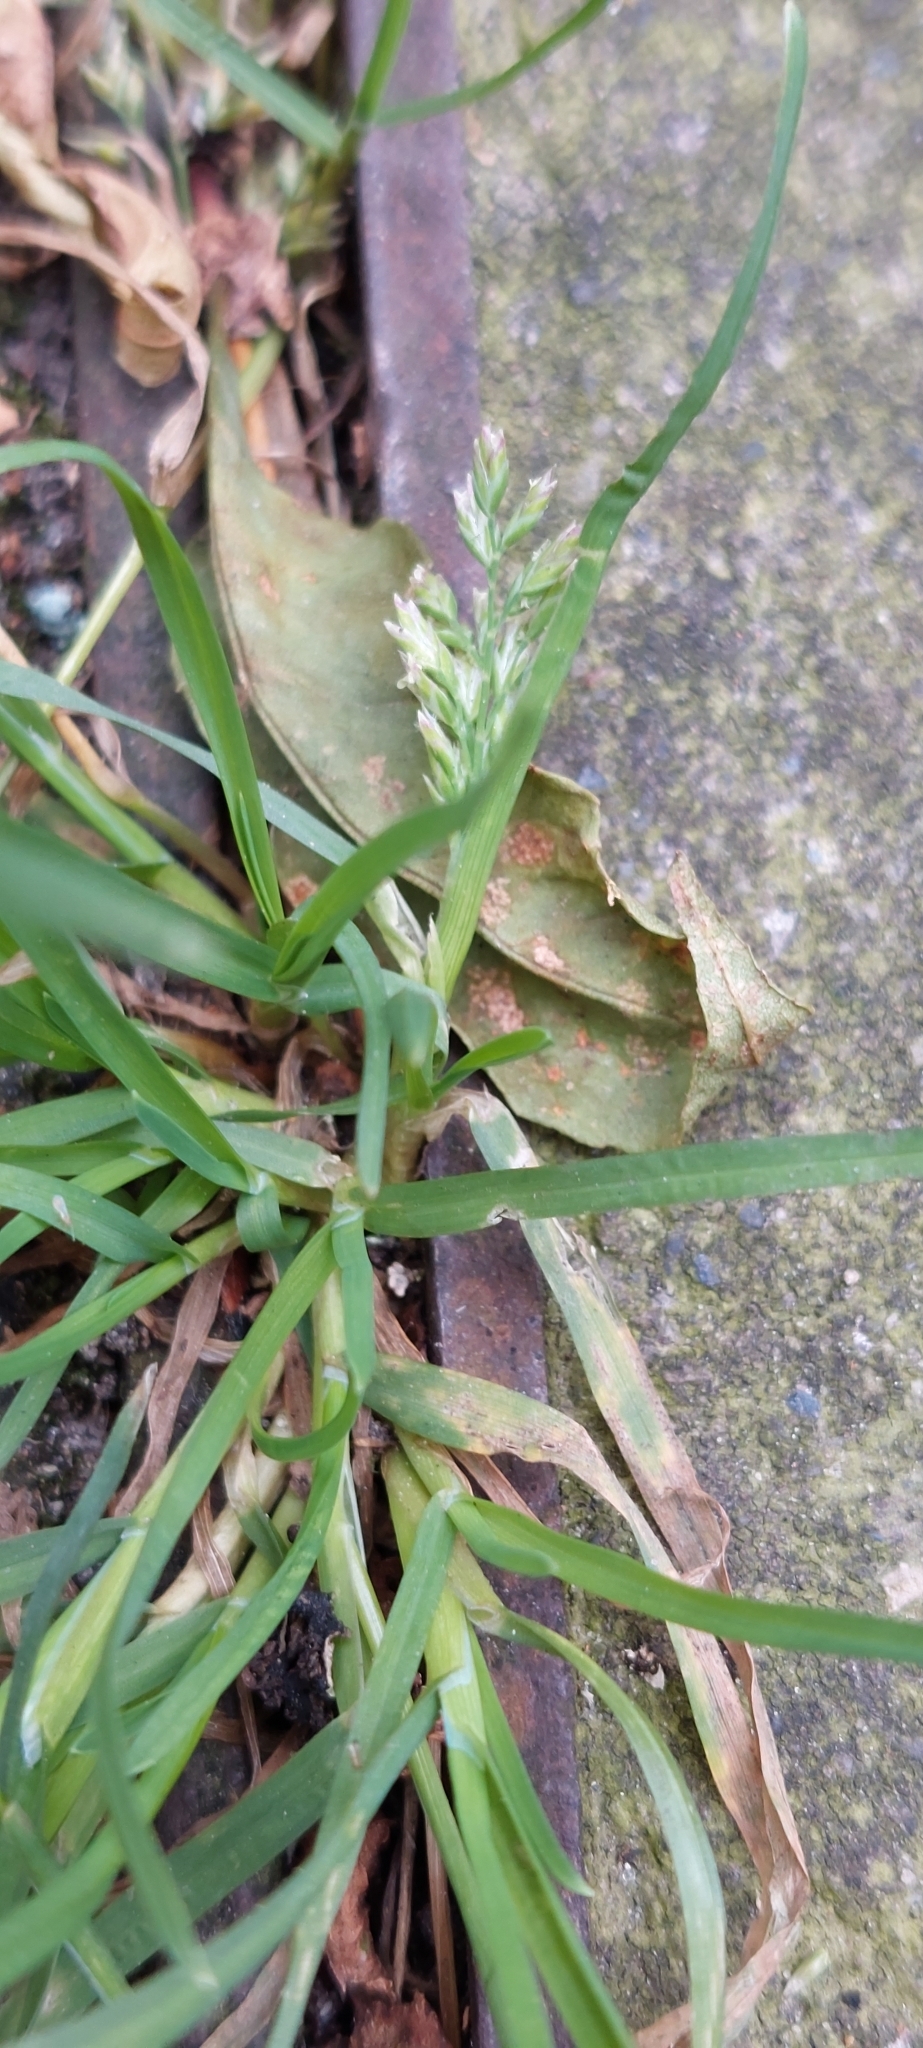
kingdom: Plantae
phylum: Tracheophyta
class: Liliopsida
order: Poales
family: Poaceae
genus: Poa
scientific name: Poa annua
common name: Annual bluegrass
